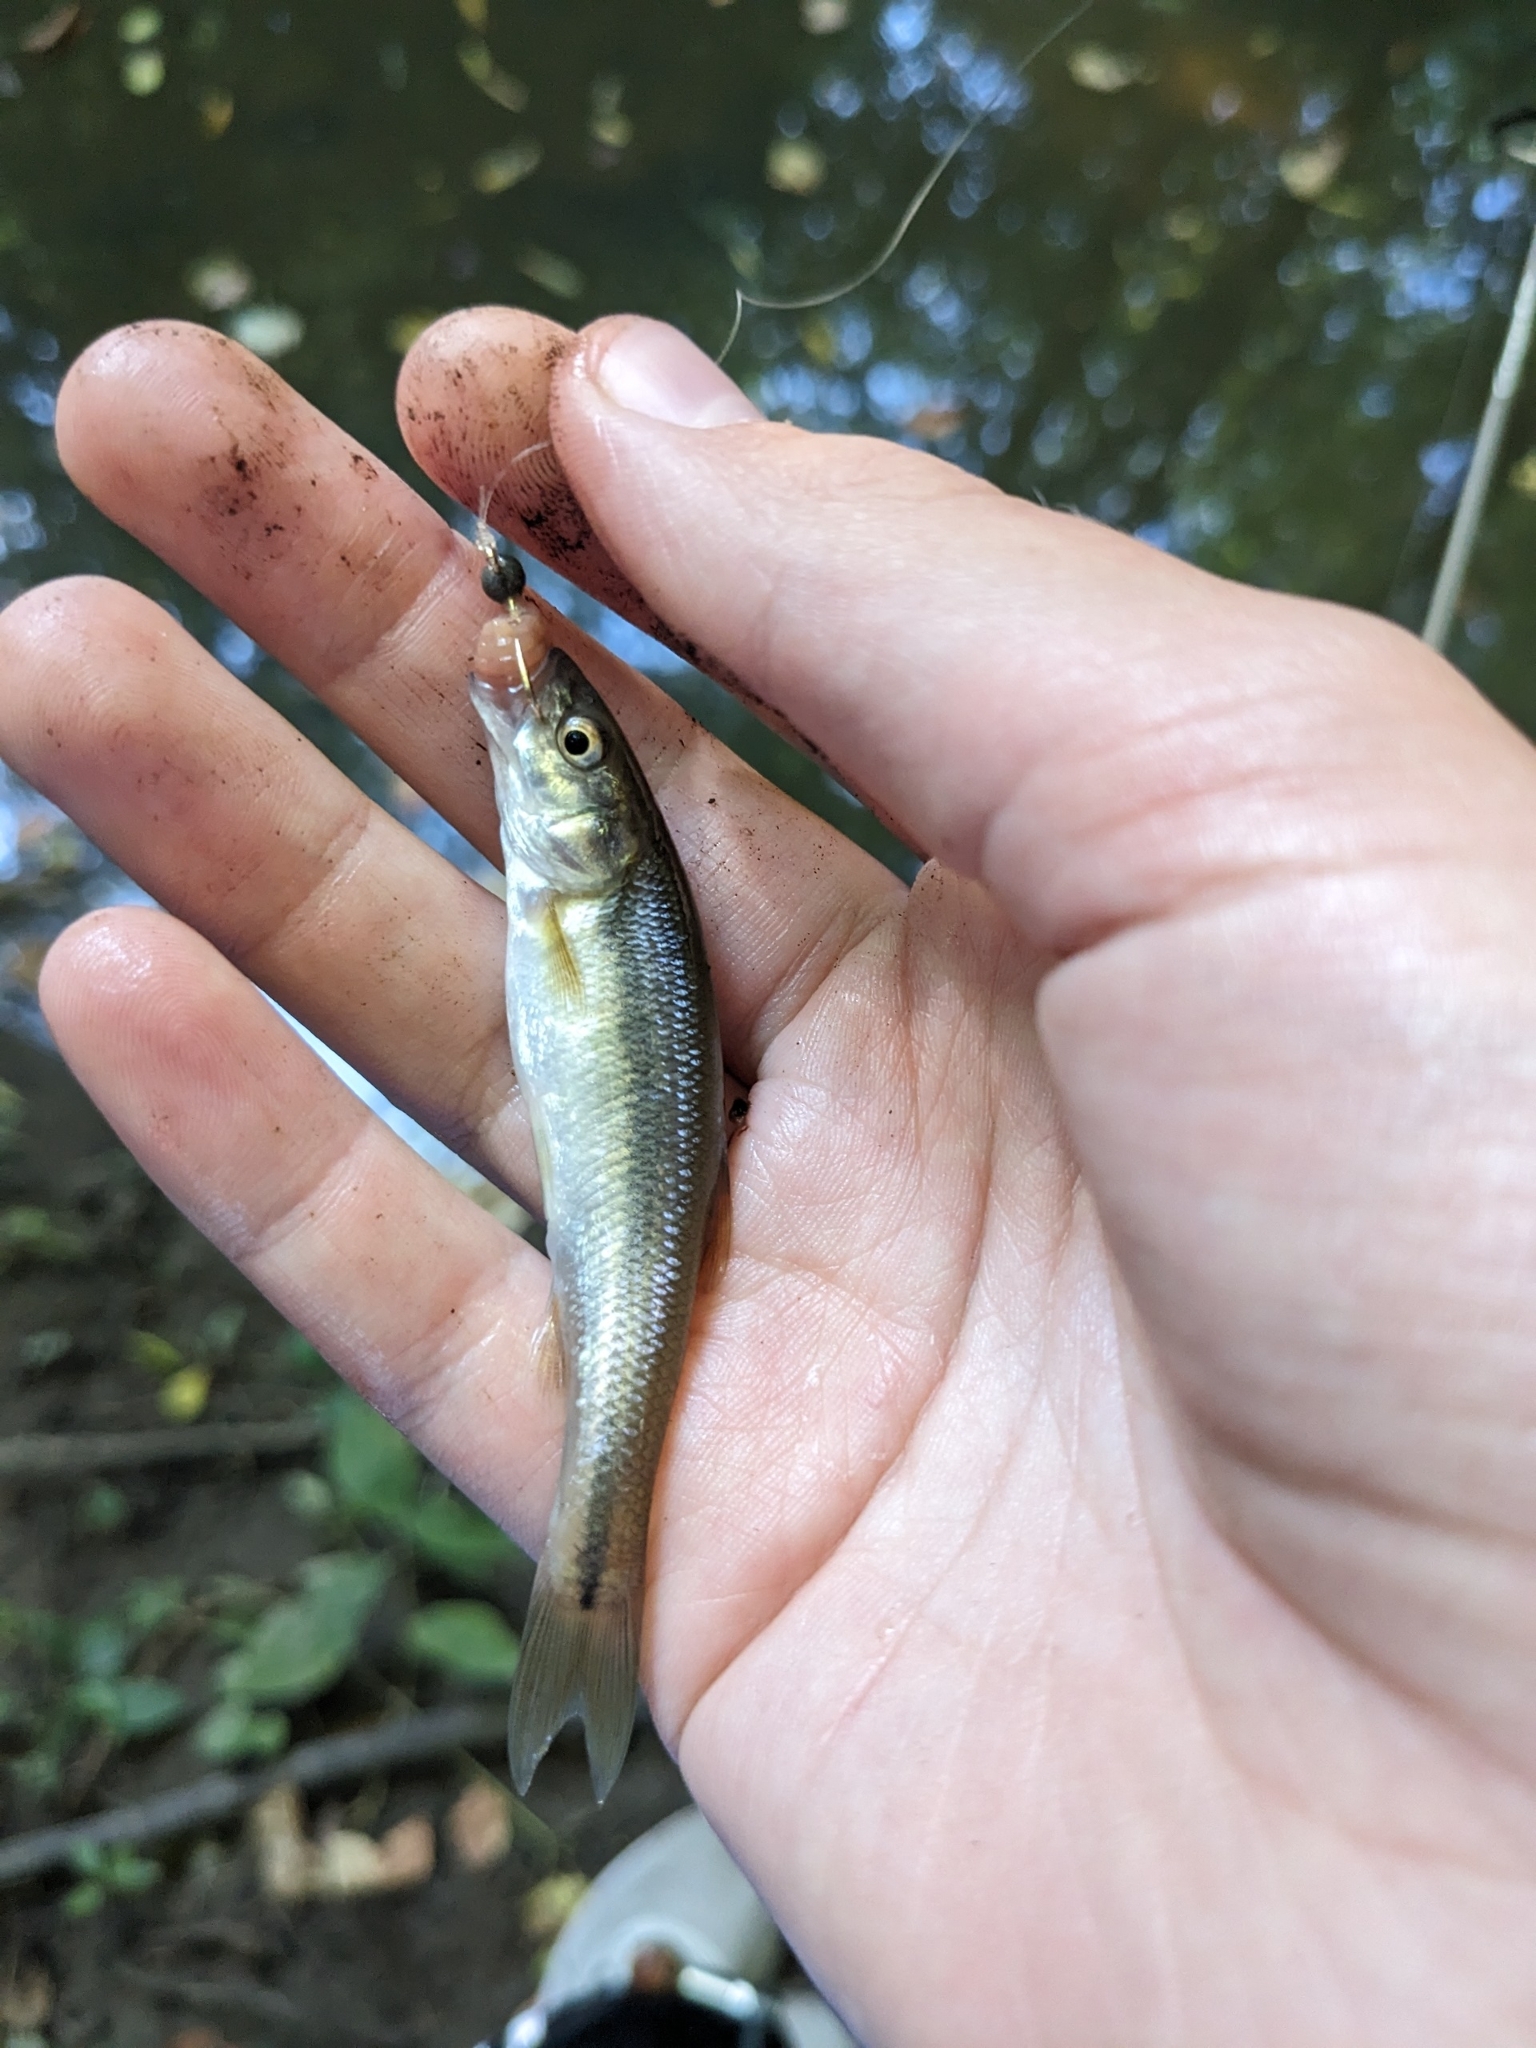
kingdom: Animalia
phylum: Chordata
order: Cypriniformes
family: Cyprinidae
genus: Semotilus
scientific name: Semotilus atromaculatus
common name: Creek chub
